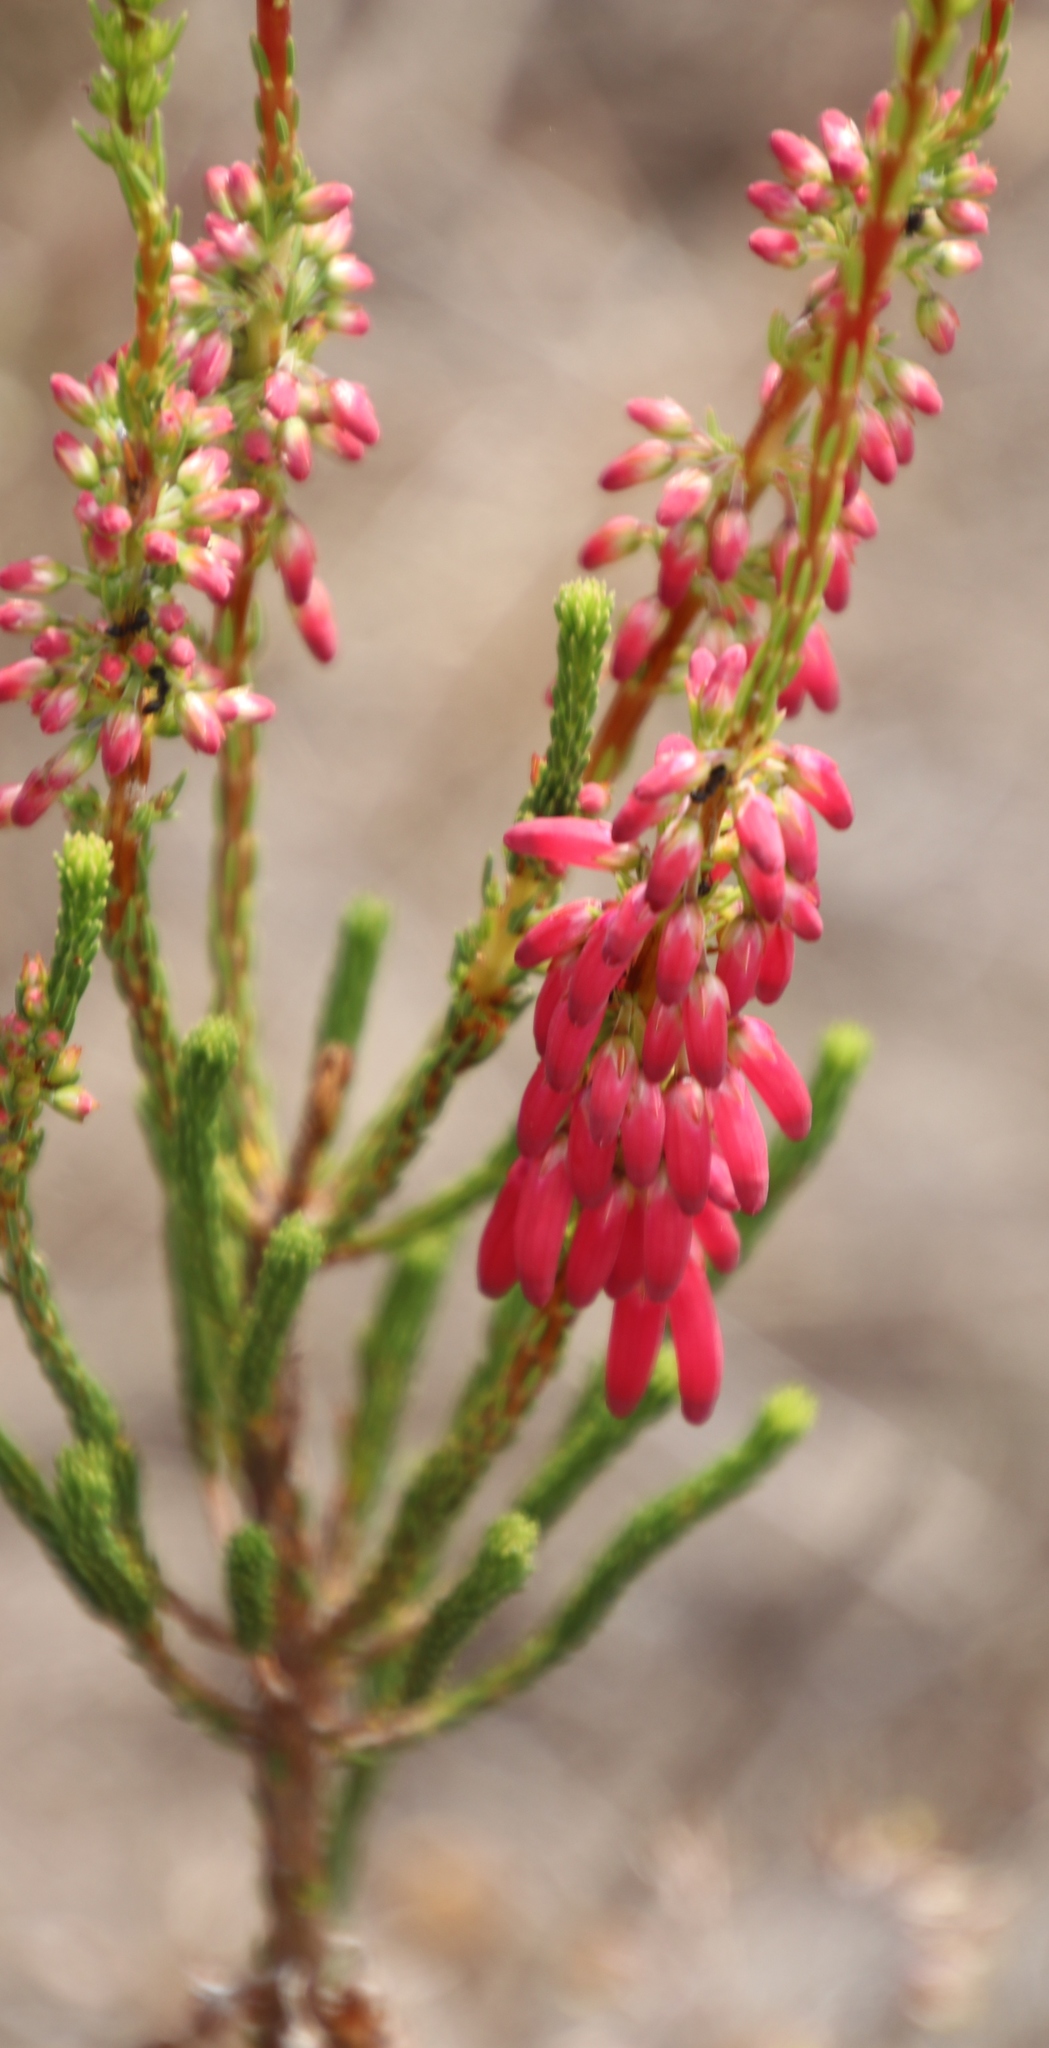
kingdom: Plantae
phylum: Tracheophyta
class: Magnoliopsida
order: Ericales
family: Ericaceae
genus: Erica
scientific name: Erica mammosa
